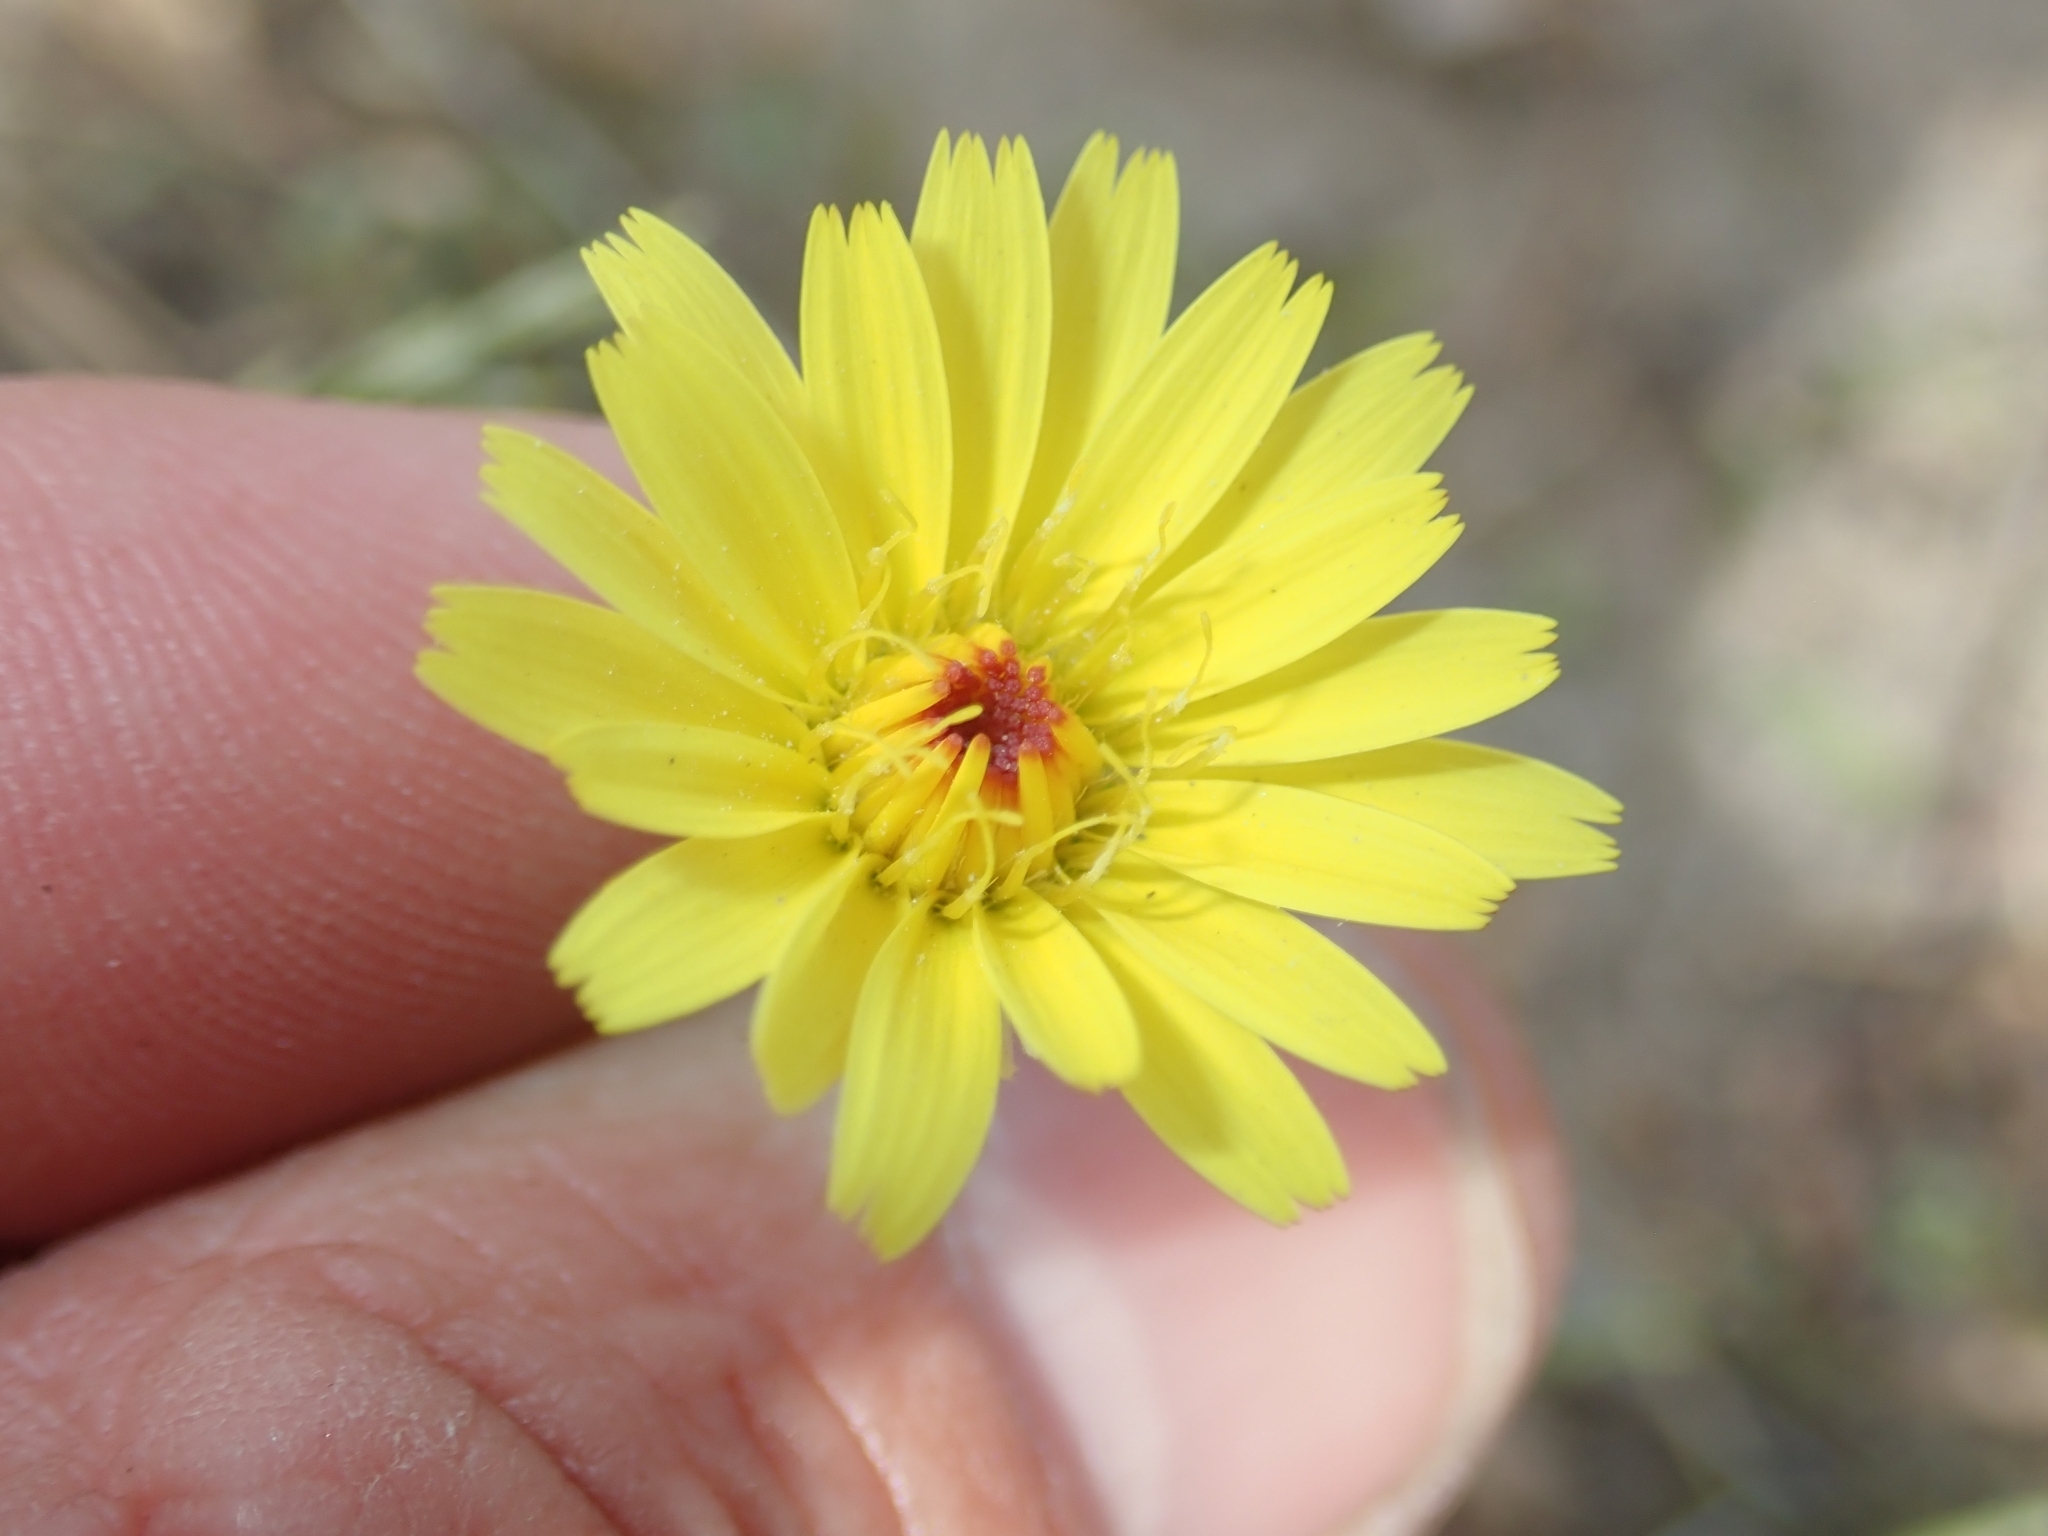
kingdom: Plantae
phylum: Tracheophyta
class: Magnoliopsida
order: Asterales
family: Asteraceae
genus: Malacothrix
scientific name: Malacothrix glabrata
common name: Smooth desert-dandelion
